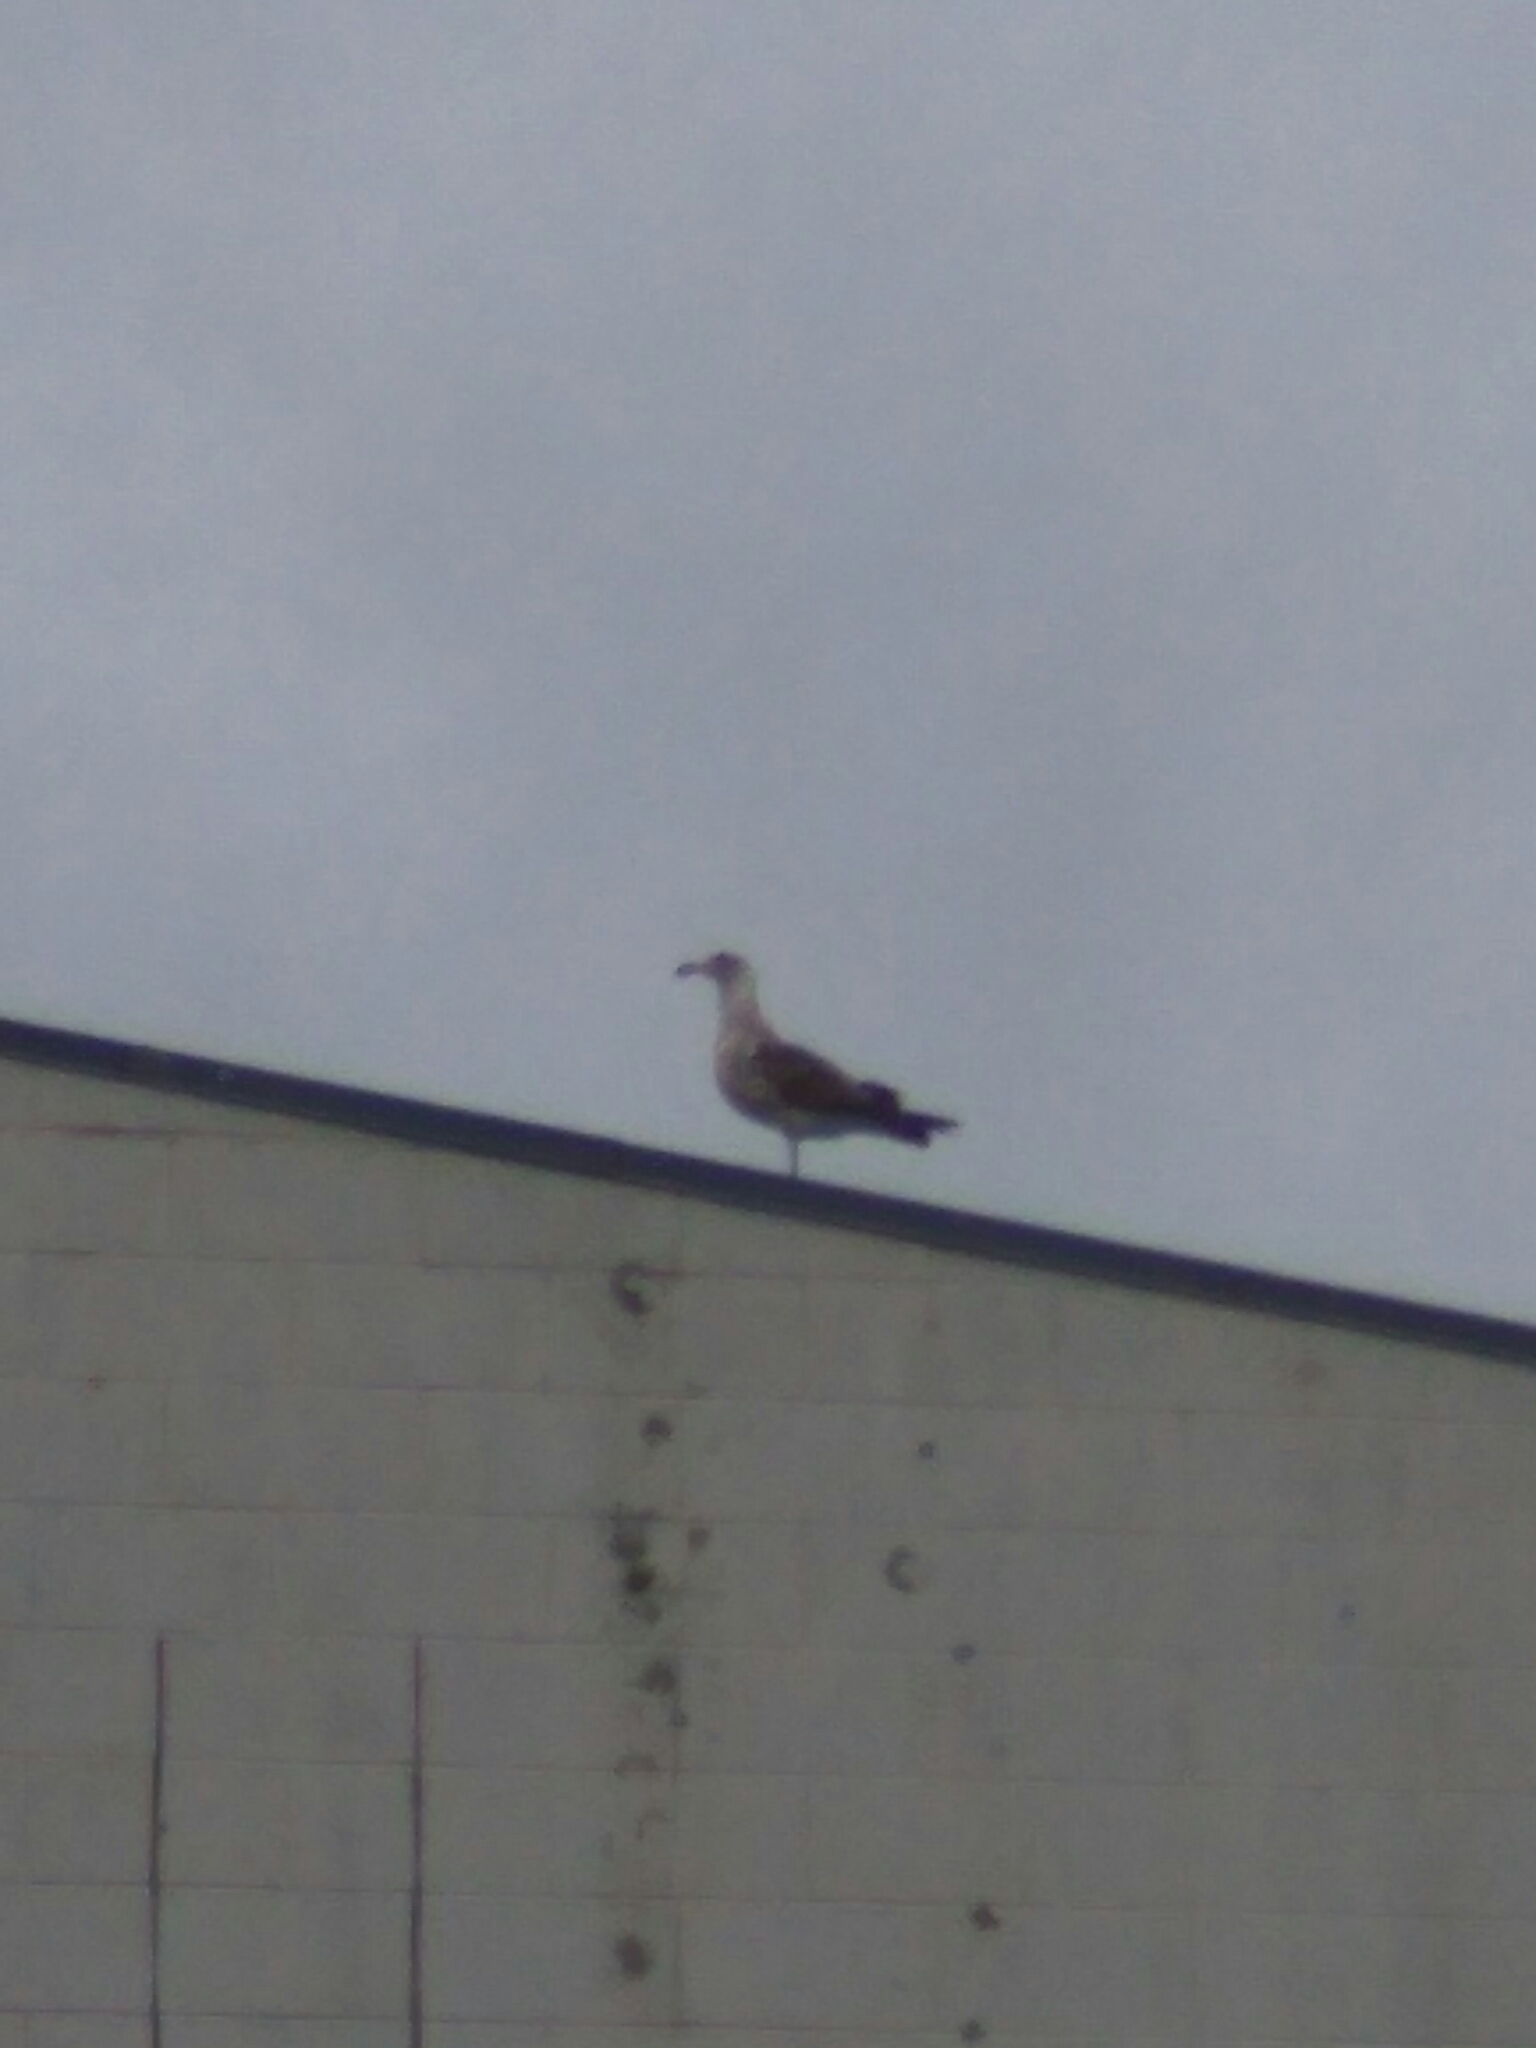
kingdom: Animalia
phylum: Chordata
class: Aves
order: Charadriiformes
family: Laridae
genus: Larus
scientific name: Larus dominicanus
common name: Kelp gull
